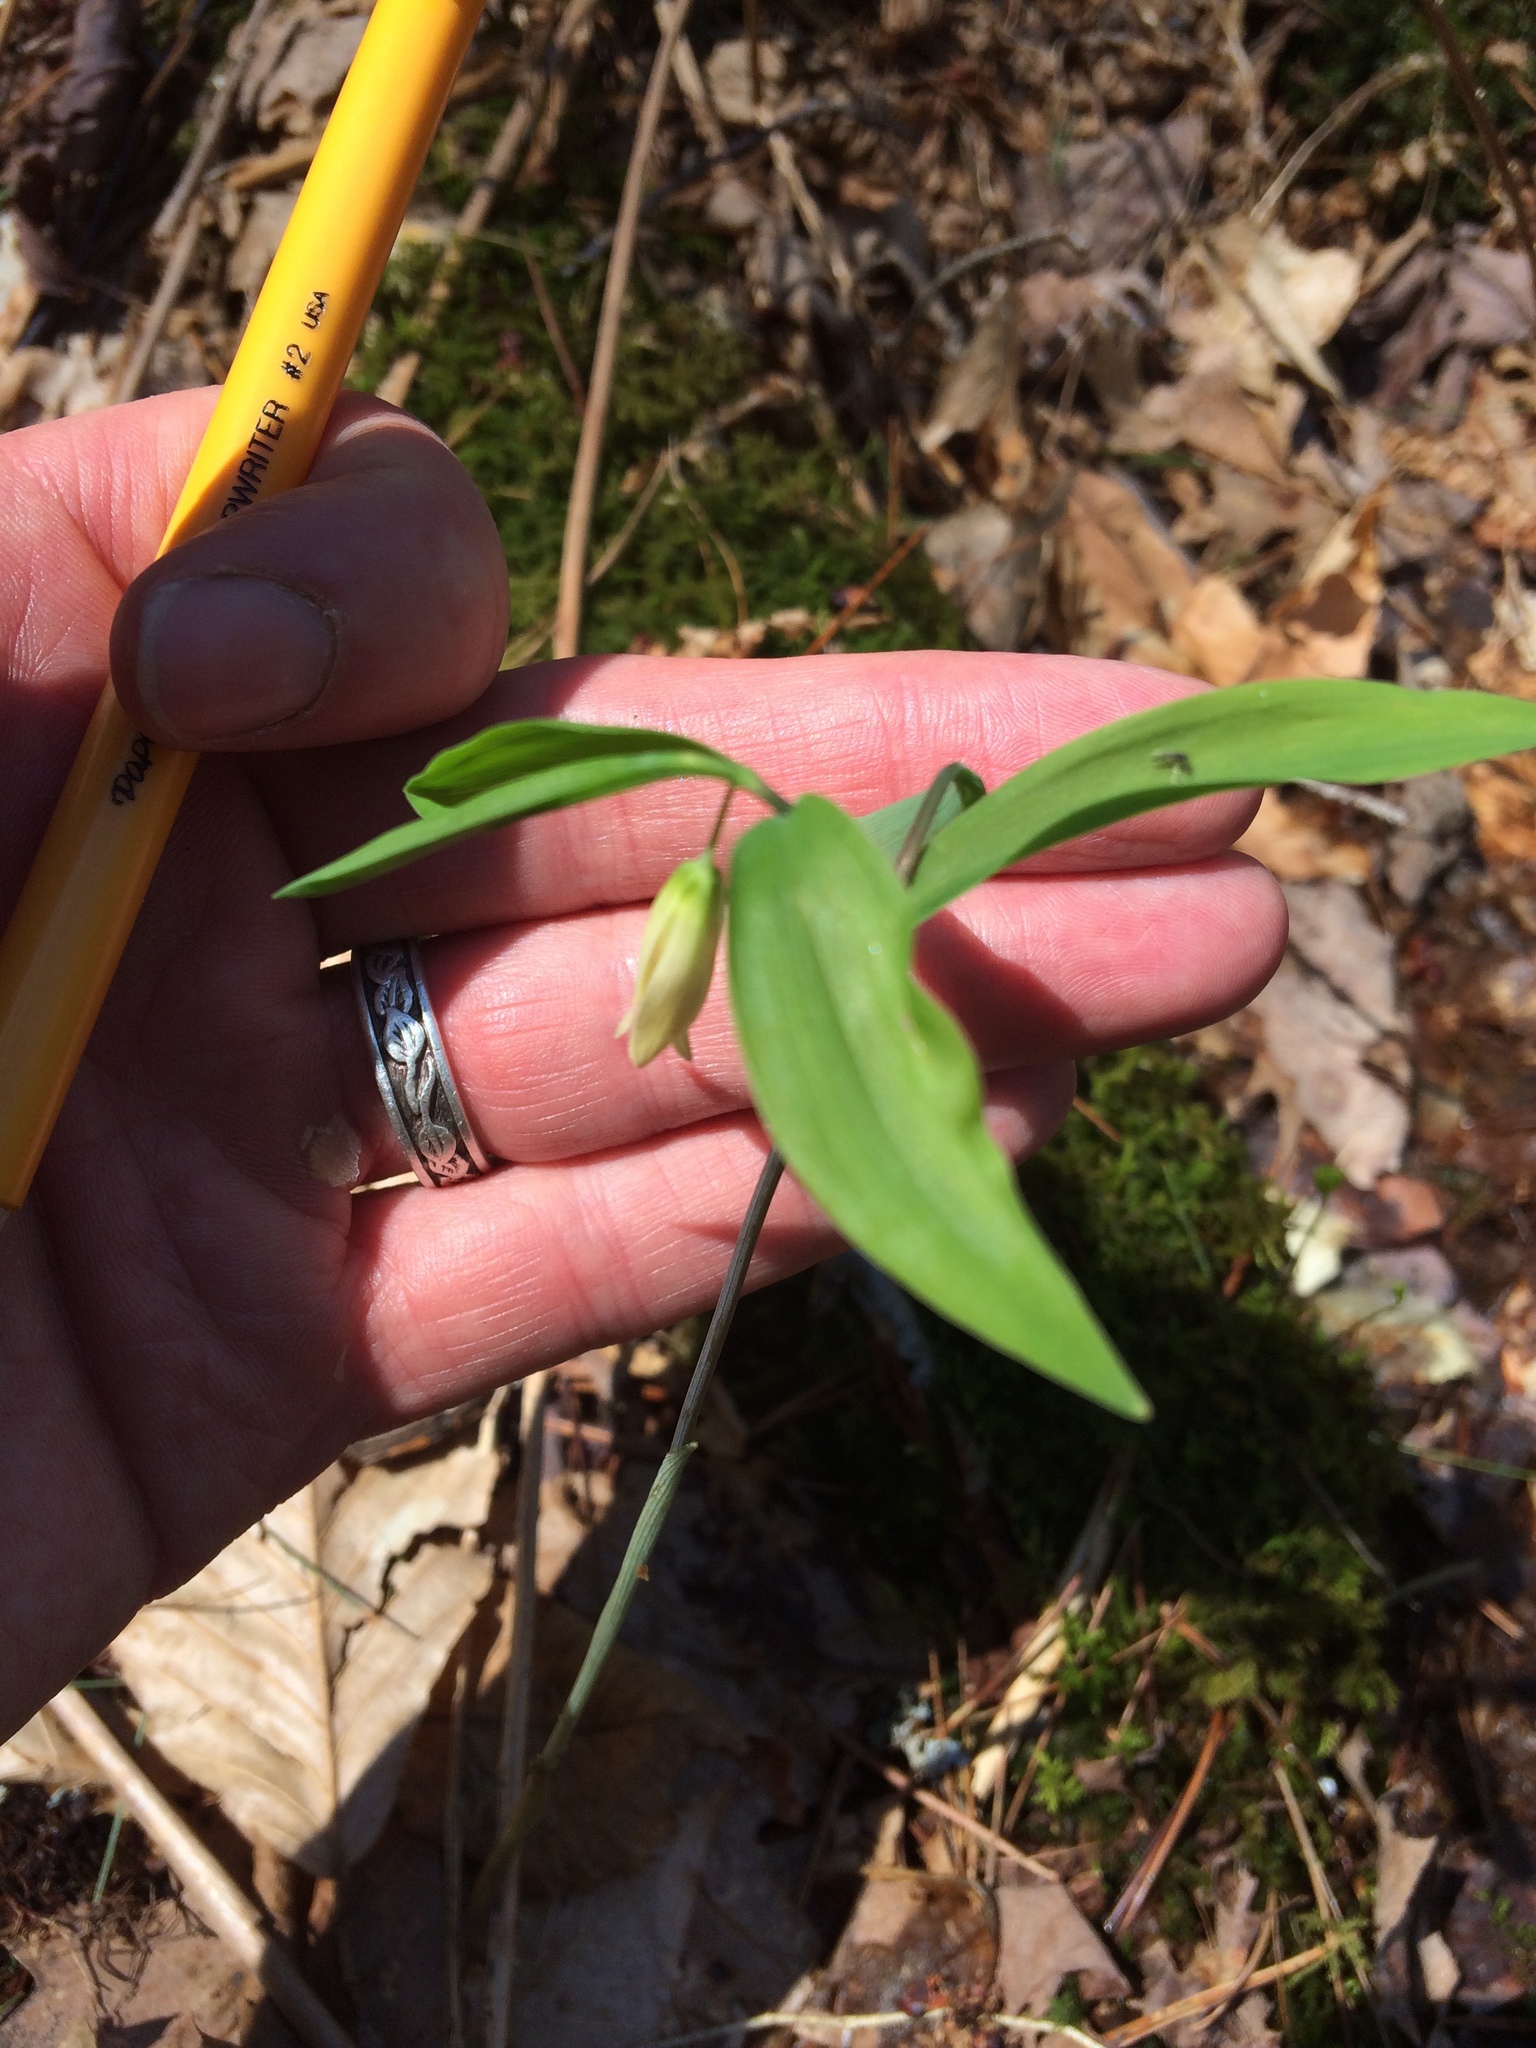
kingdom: Plantae
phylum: Tracheophyta
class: Liliopsida
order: Liliales
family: Colchicaceae
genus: Uvularia
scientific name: Uvularia sessilifolia
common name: Straw-lily
